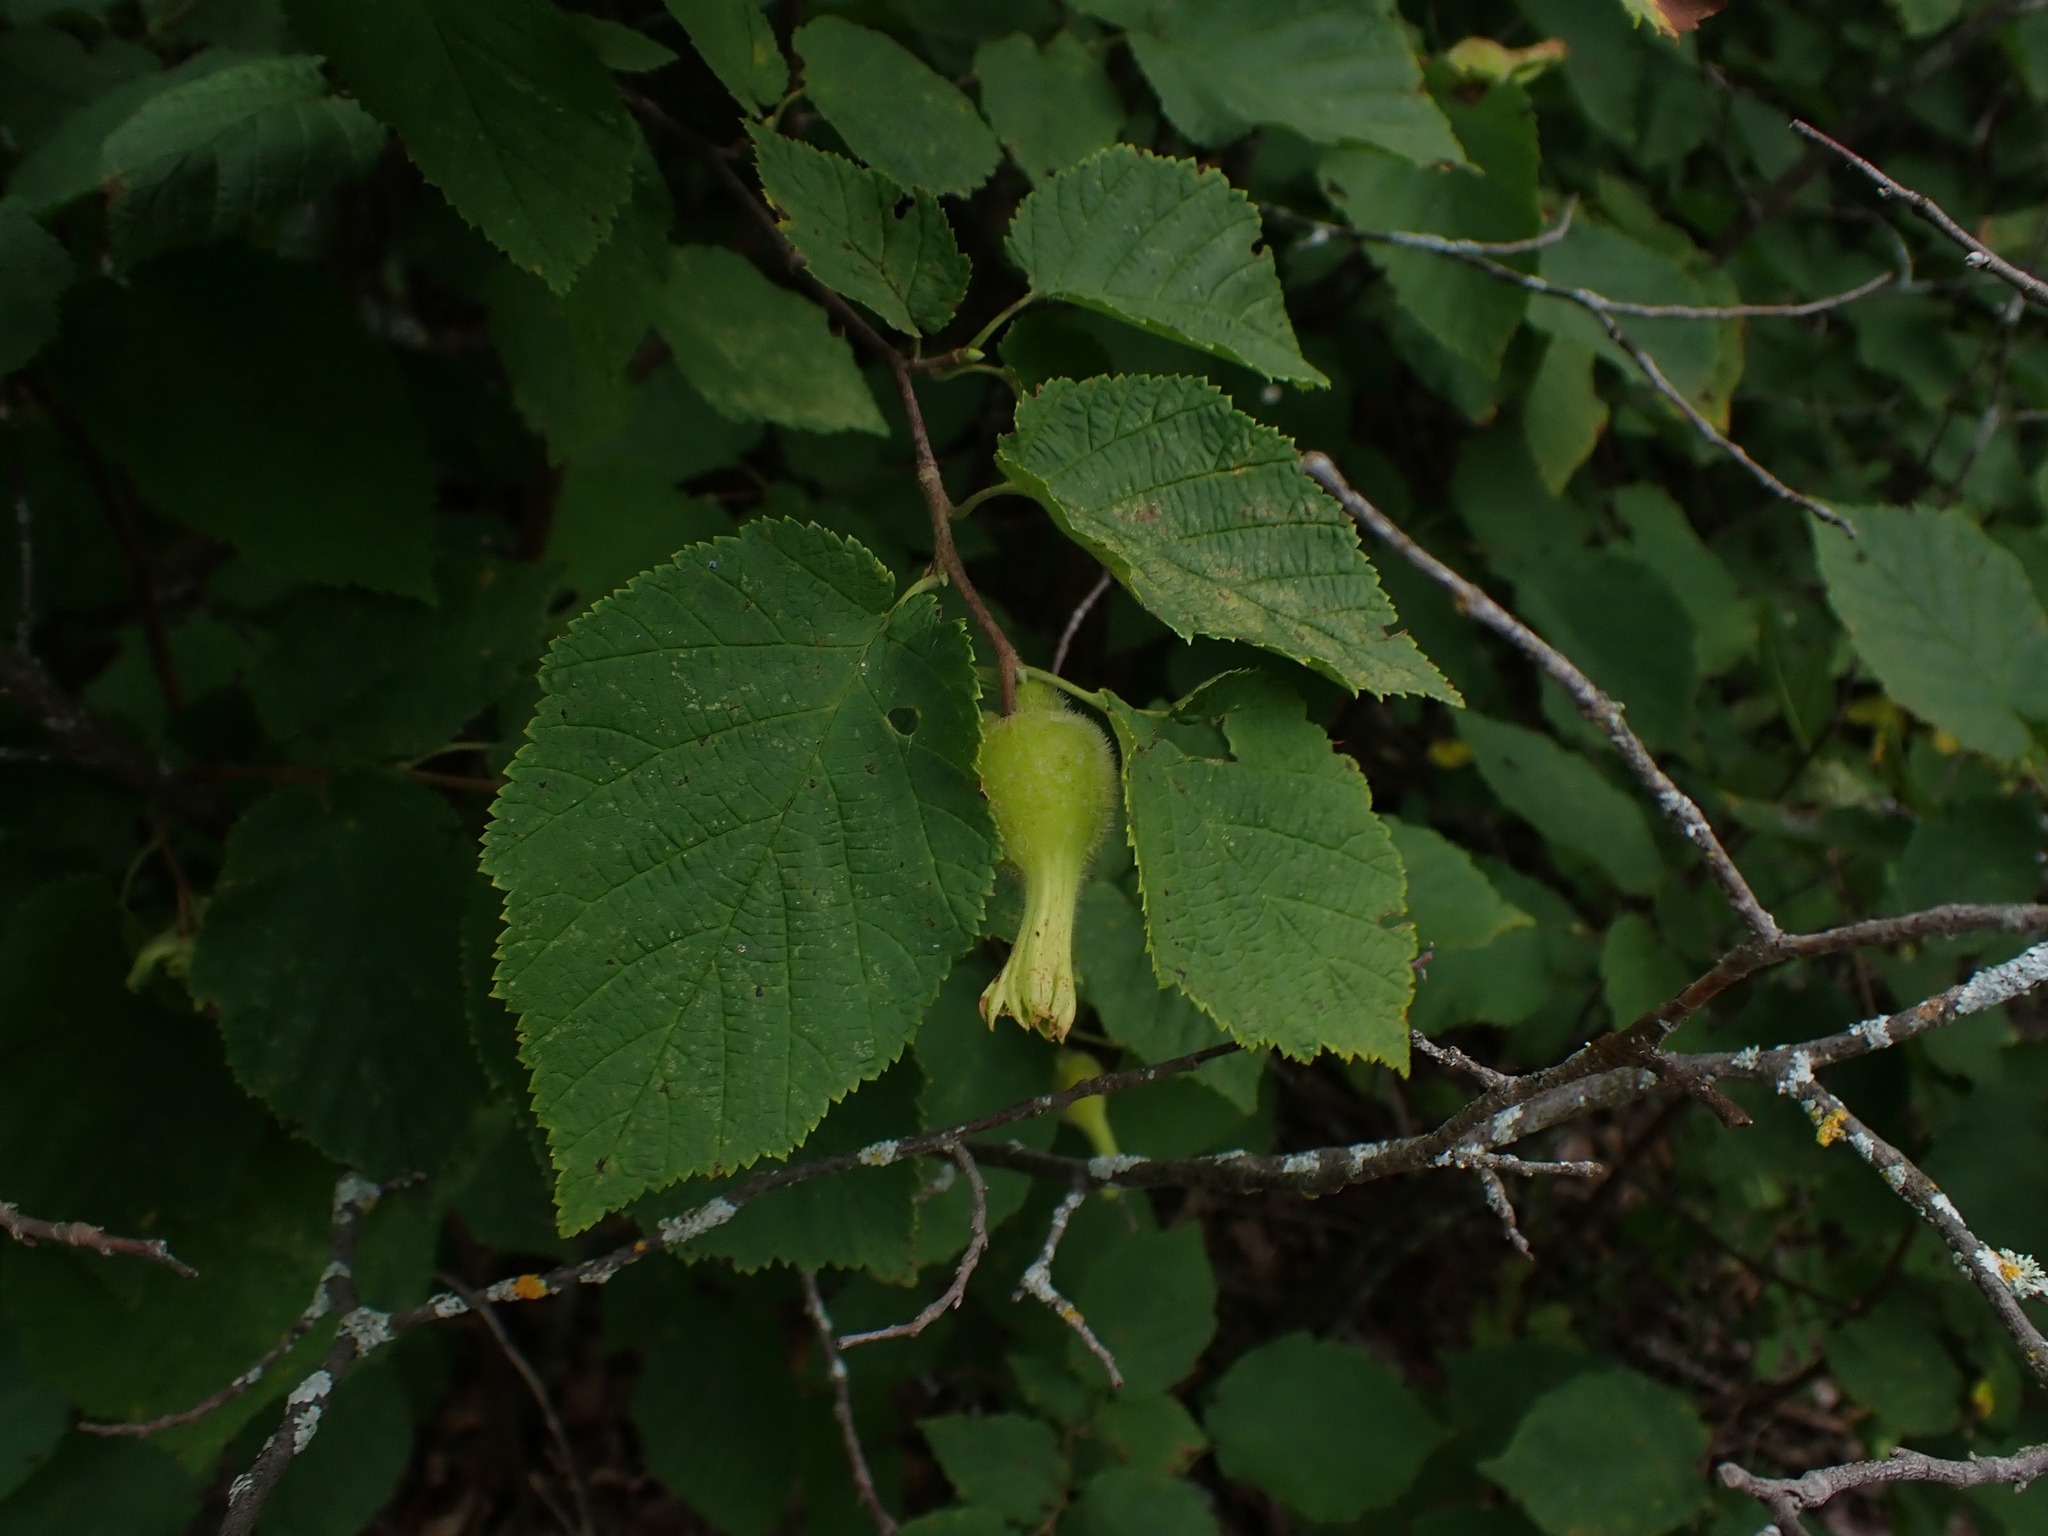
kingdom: Plantae
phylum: Tracheophyta
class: Magnoliopsida
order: Fagales
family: Betulaceae
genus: Corylus
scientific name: Corylus cornuta
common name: Beaked hazel
